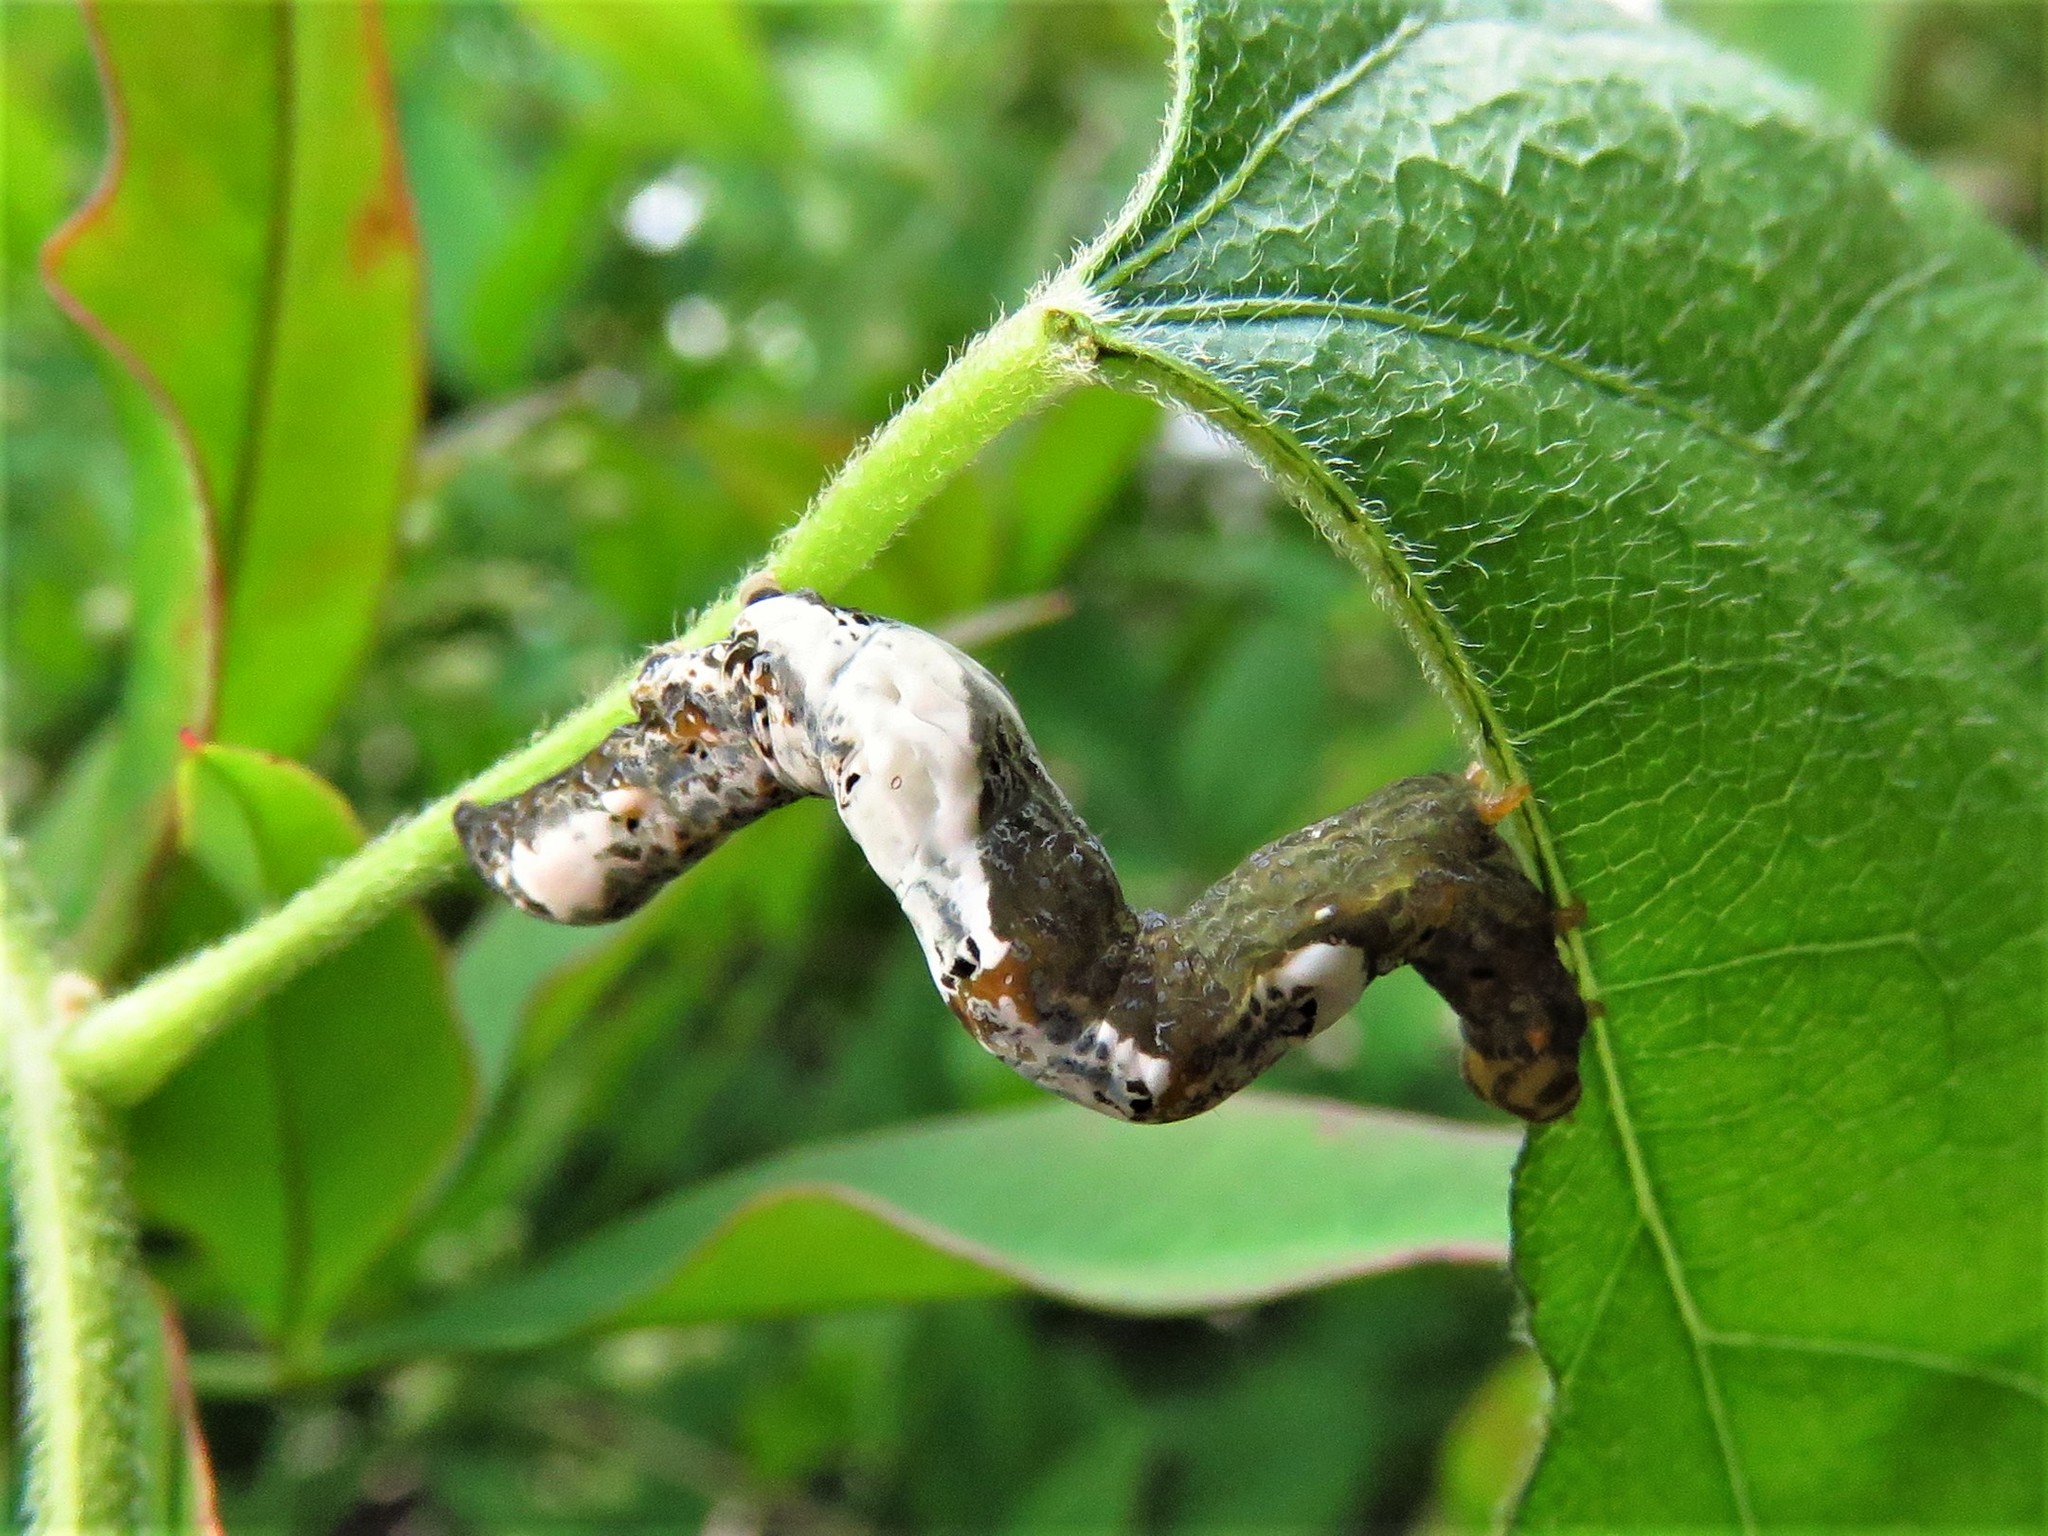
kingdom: Animalia
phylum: Arthropoda
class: Insecta
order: Lepidoptera
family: Erebidae
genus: Plusiodonta
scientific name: Plusiodonta compressipalpis
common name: Moonseed moth
